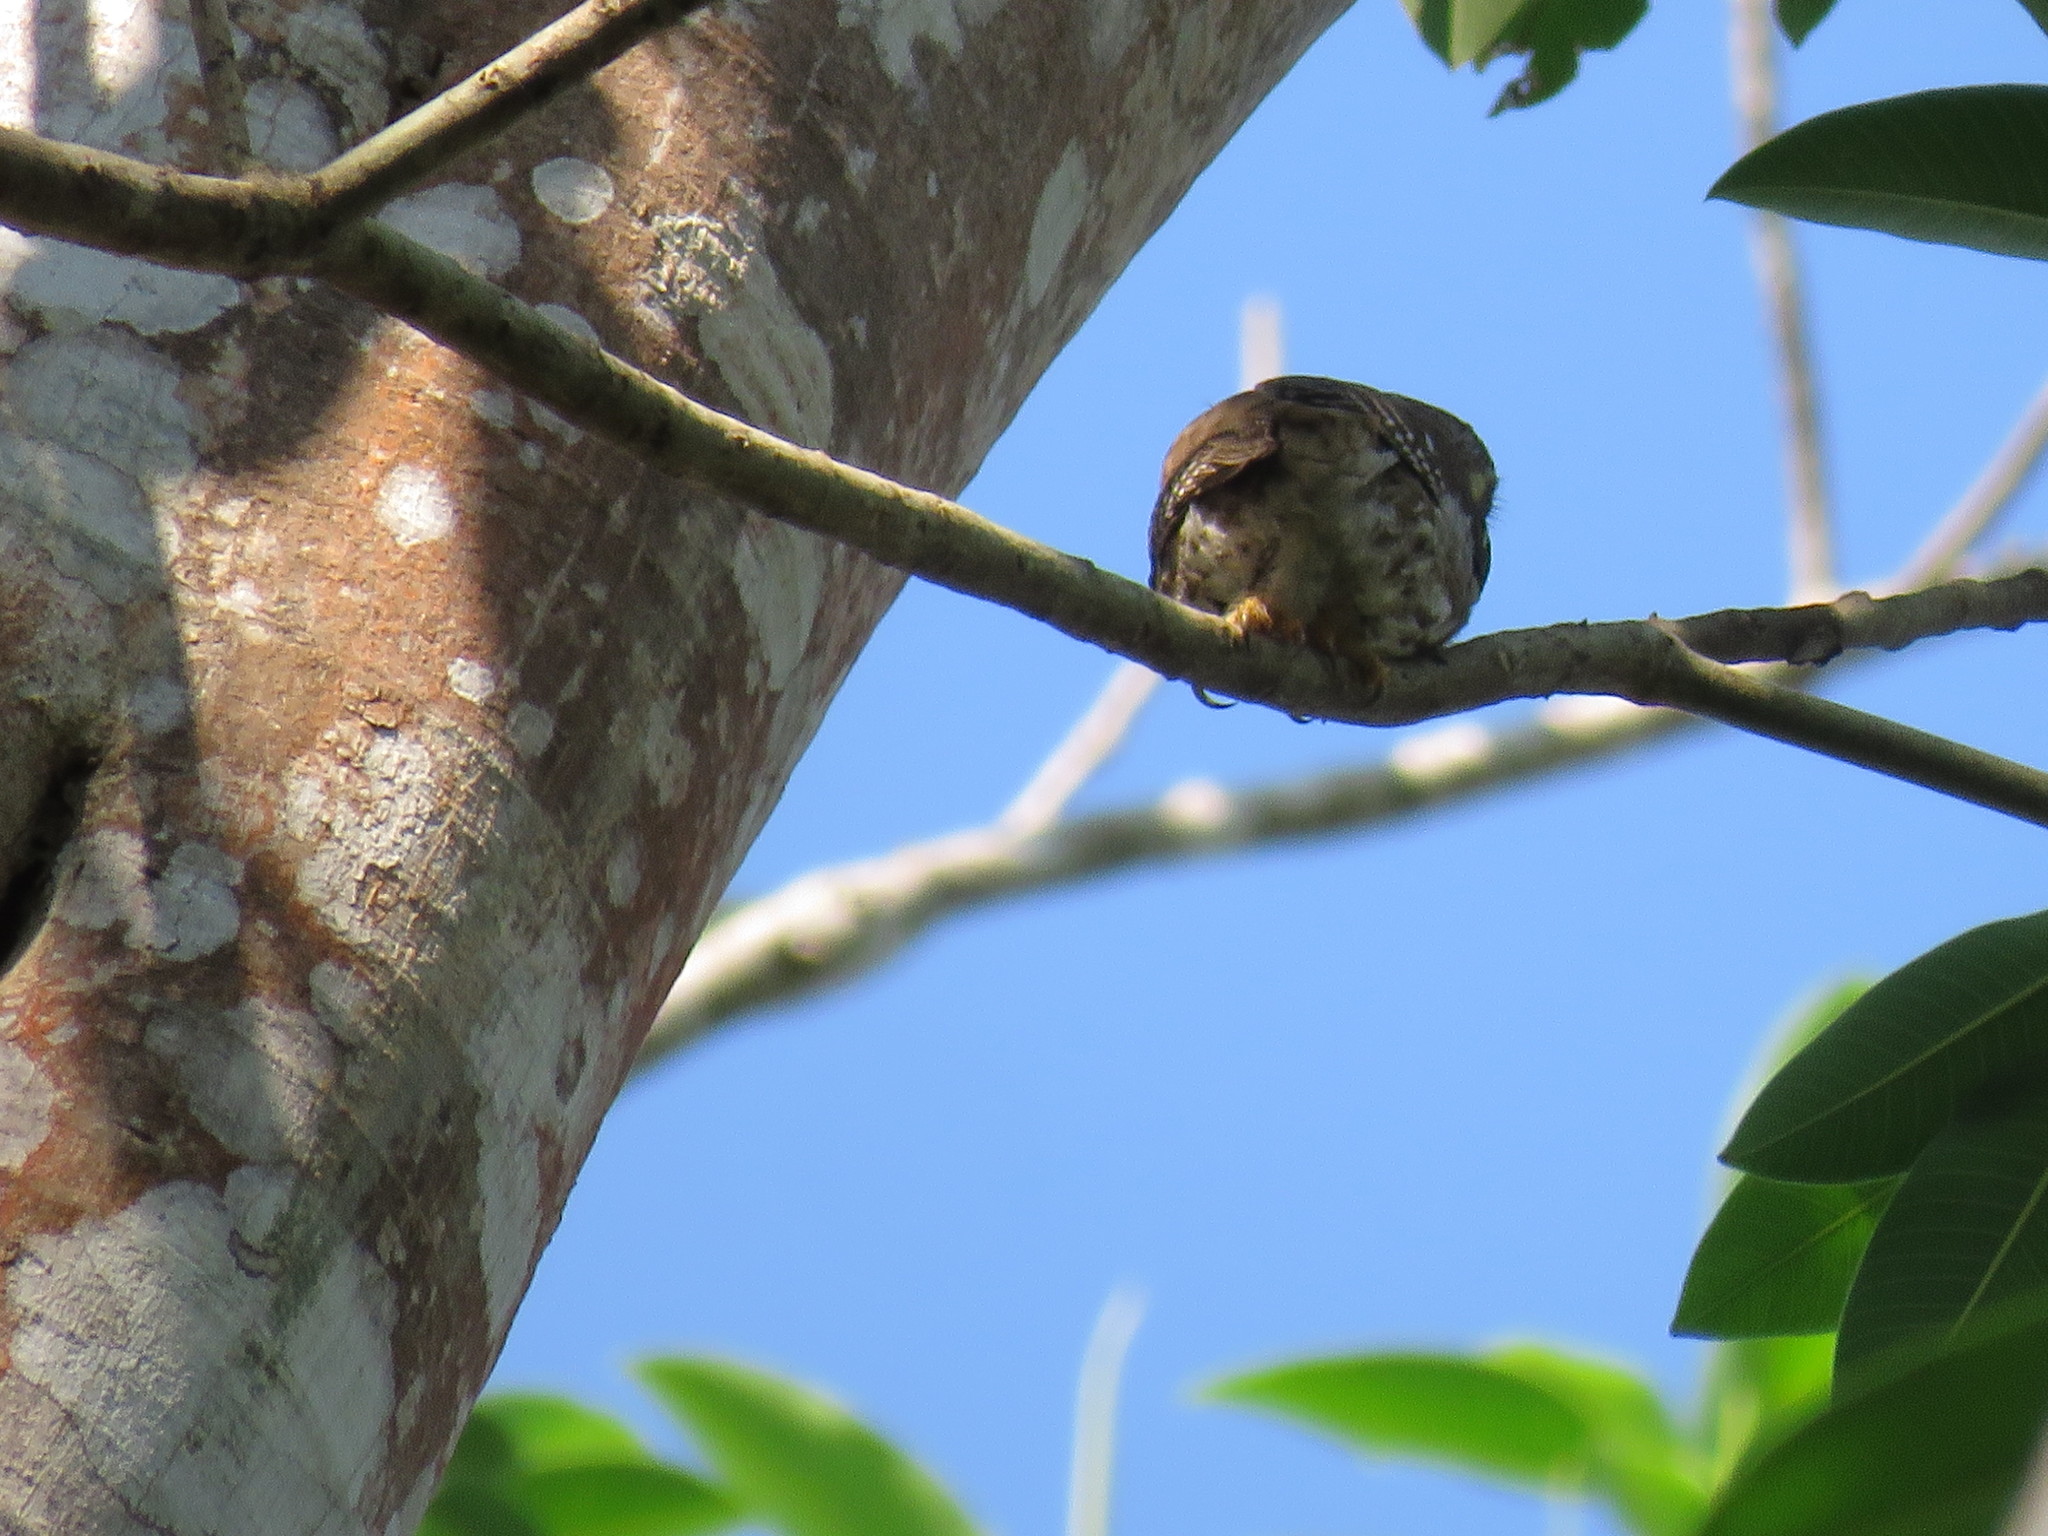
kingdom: Animalia
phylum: Chordata
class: Aves
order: Strigiformes
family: Strigidae
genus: Glaucidium
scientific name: Glaucidium brasilianum
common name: Ferruginous pygmy-owl
